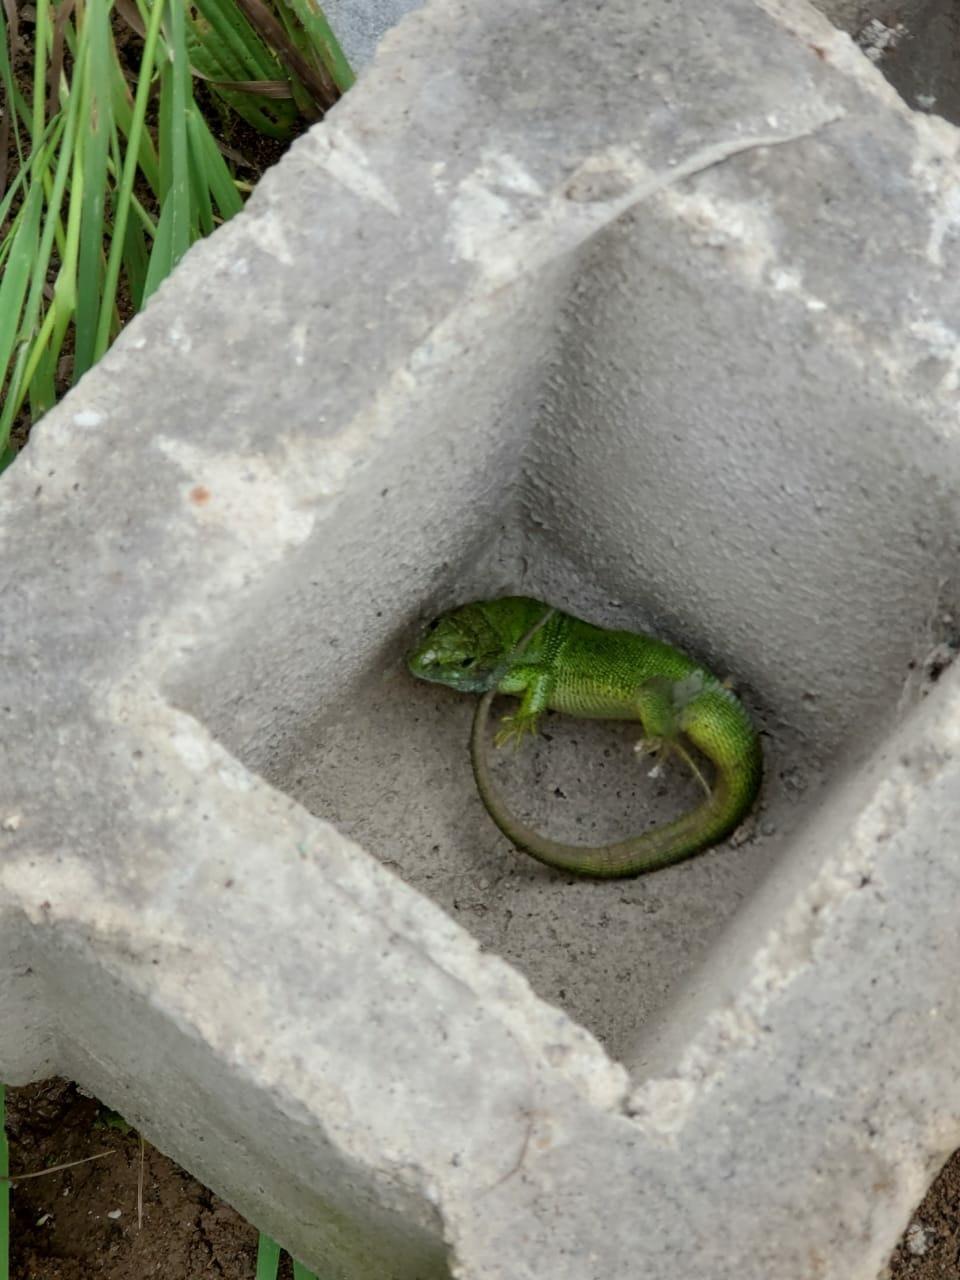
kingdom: Animalia
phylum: Chordata
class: Squamata
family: Lacertidae
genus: Lacerta
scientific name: Lacerta agilis
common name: Sand lizard
